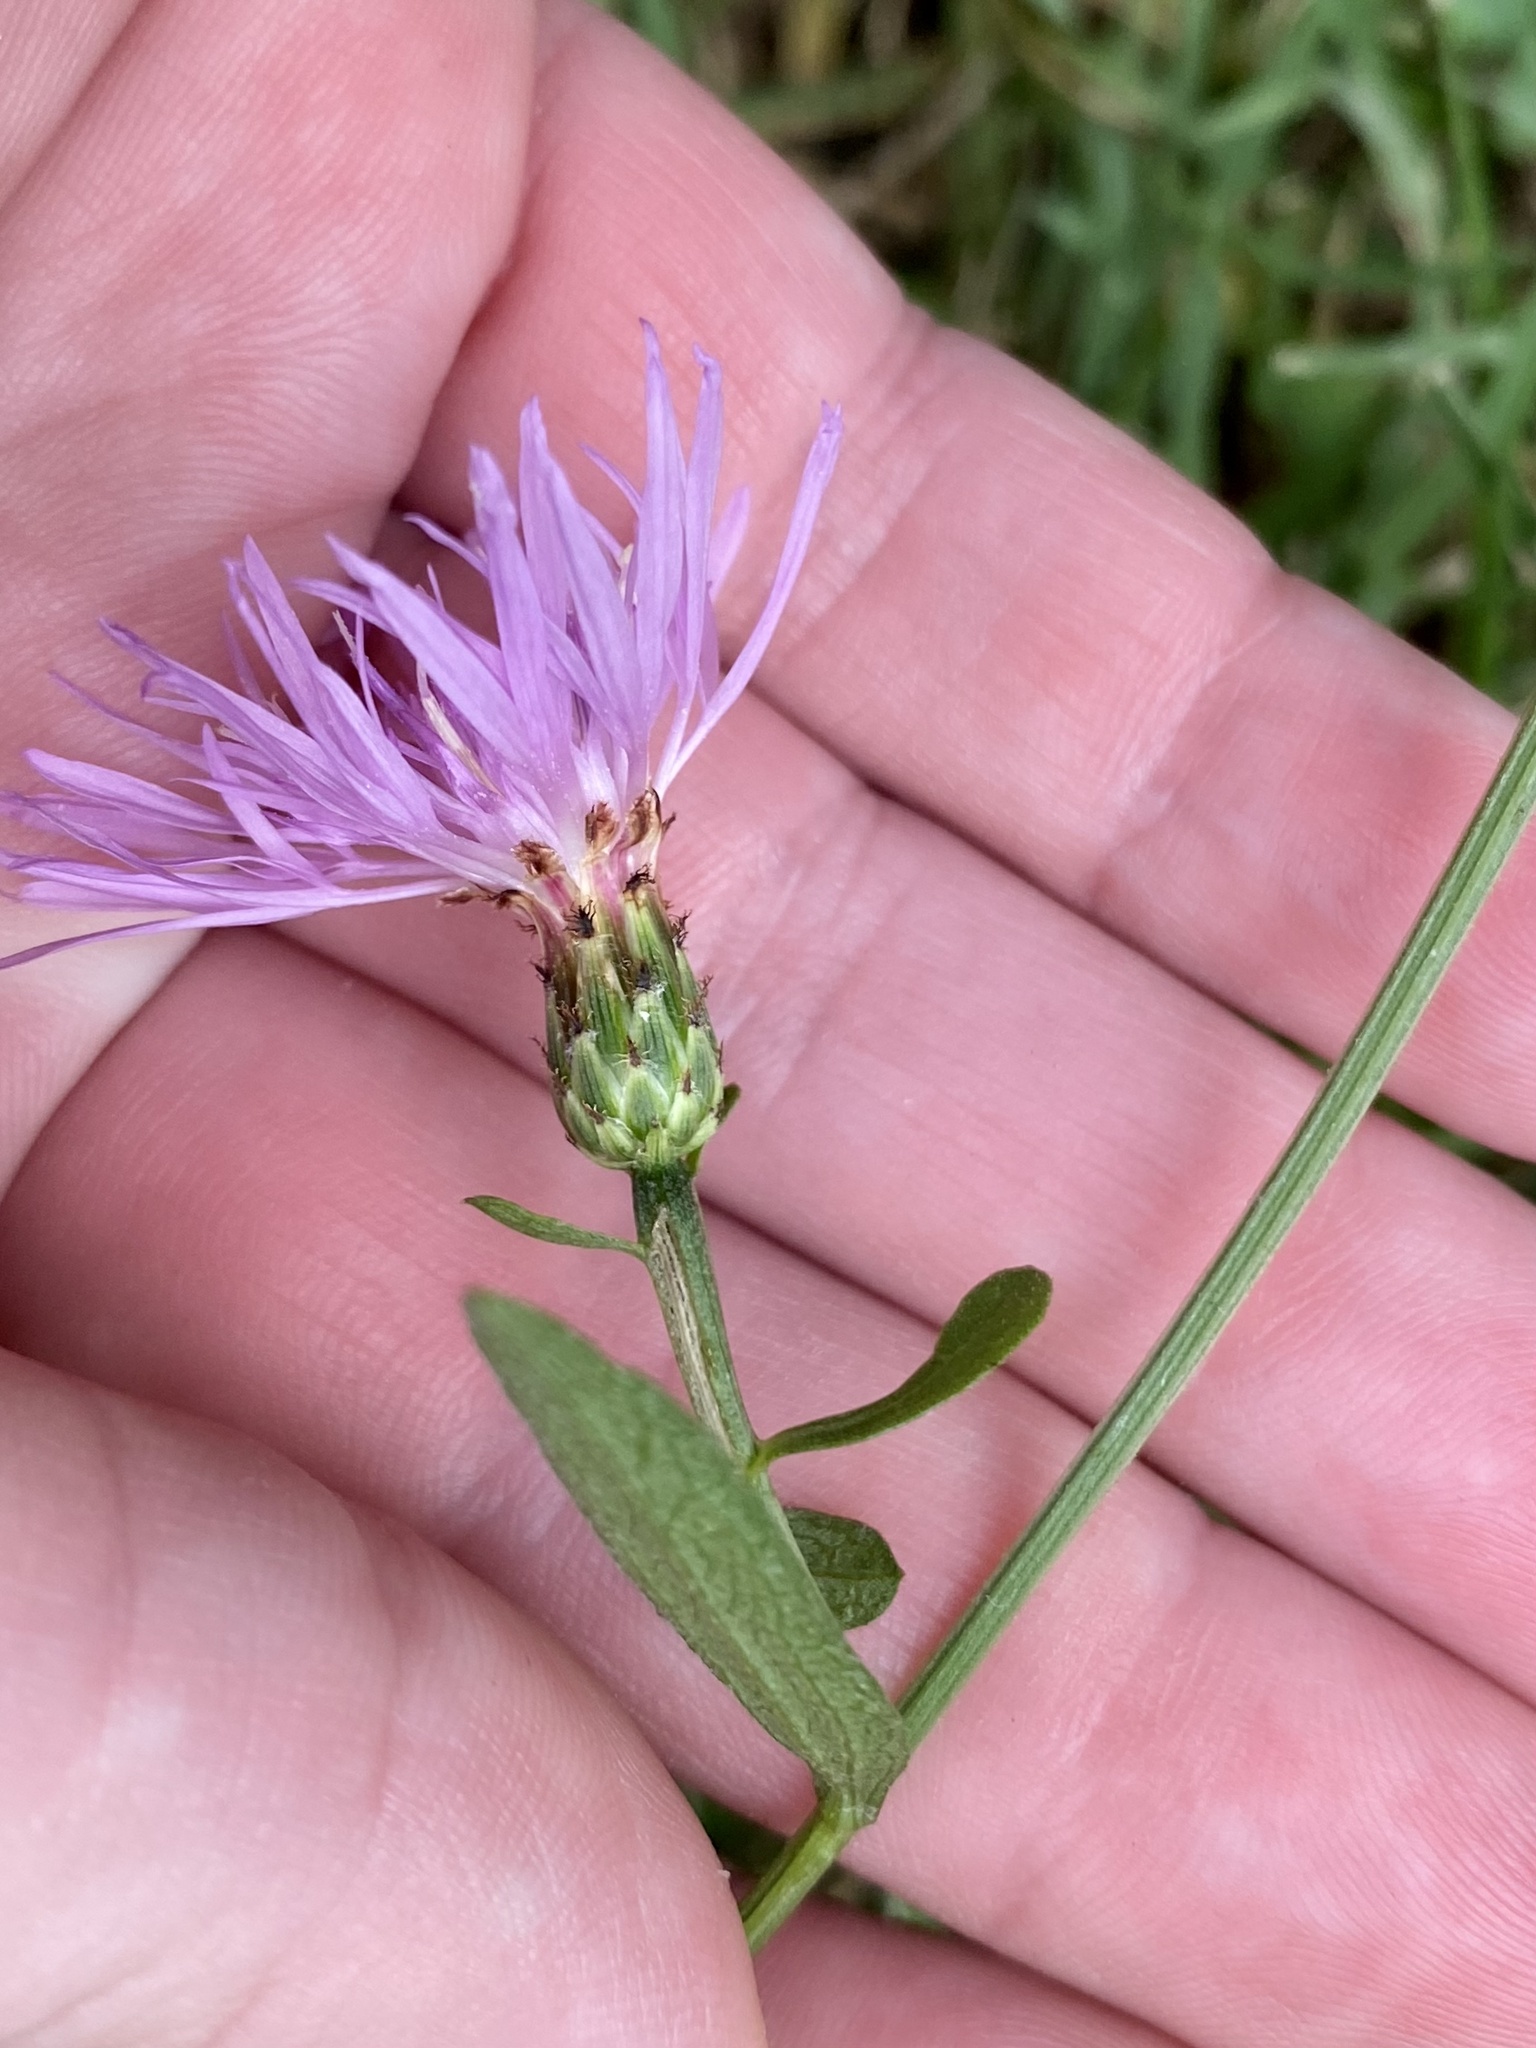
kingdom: Plantae
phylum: Tracheophyta
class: Magnoliopsida
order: Asterales
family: Asteraceae
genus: Centaurea
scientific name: Centaurea nigrescens
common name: Tyrol knapweed
